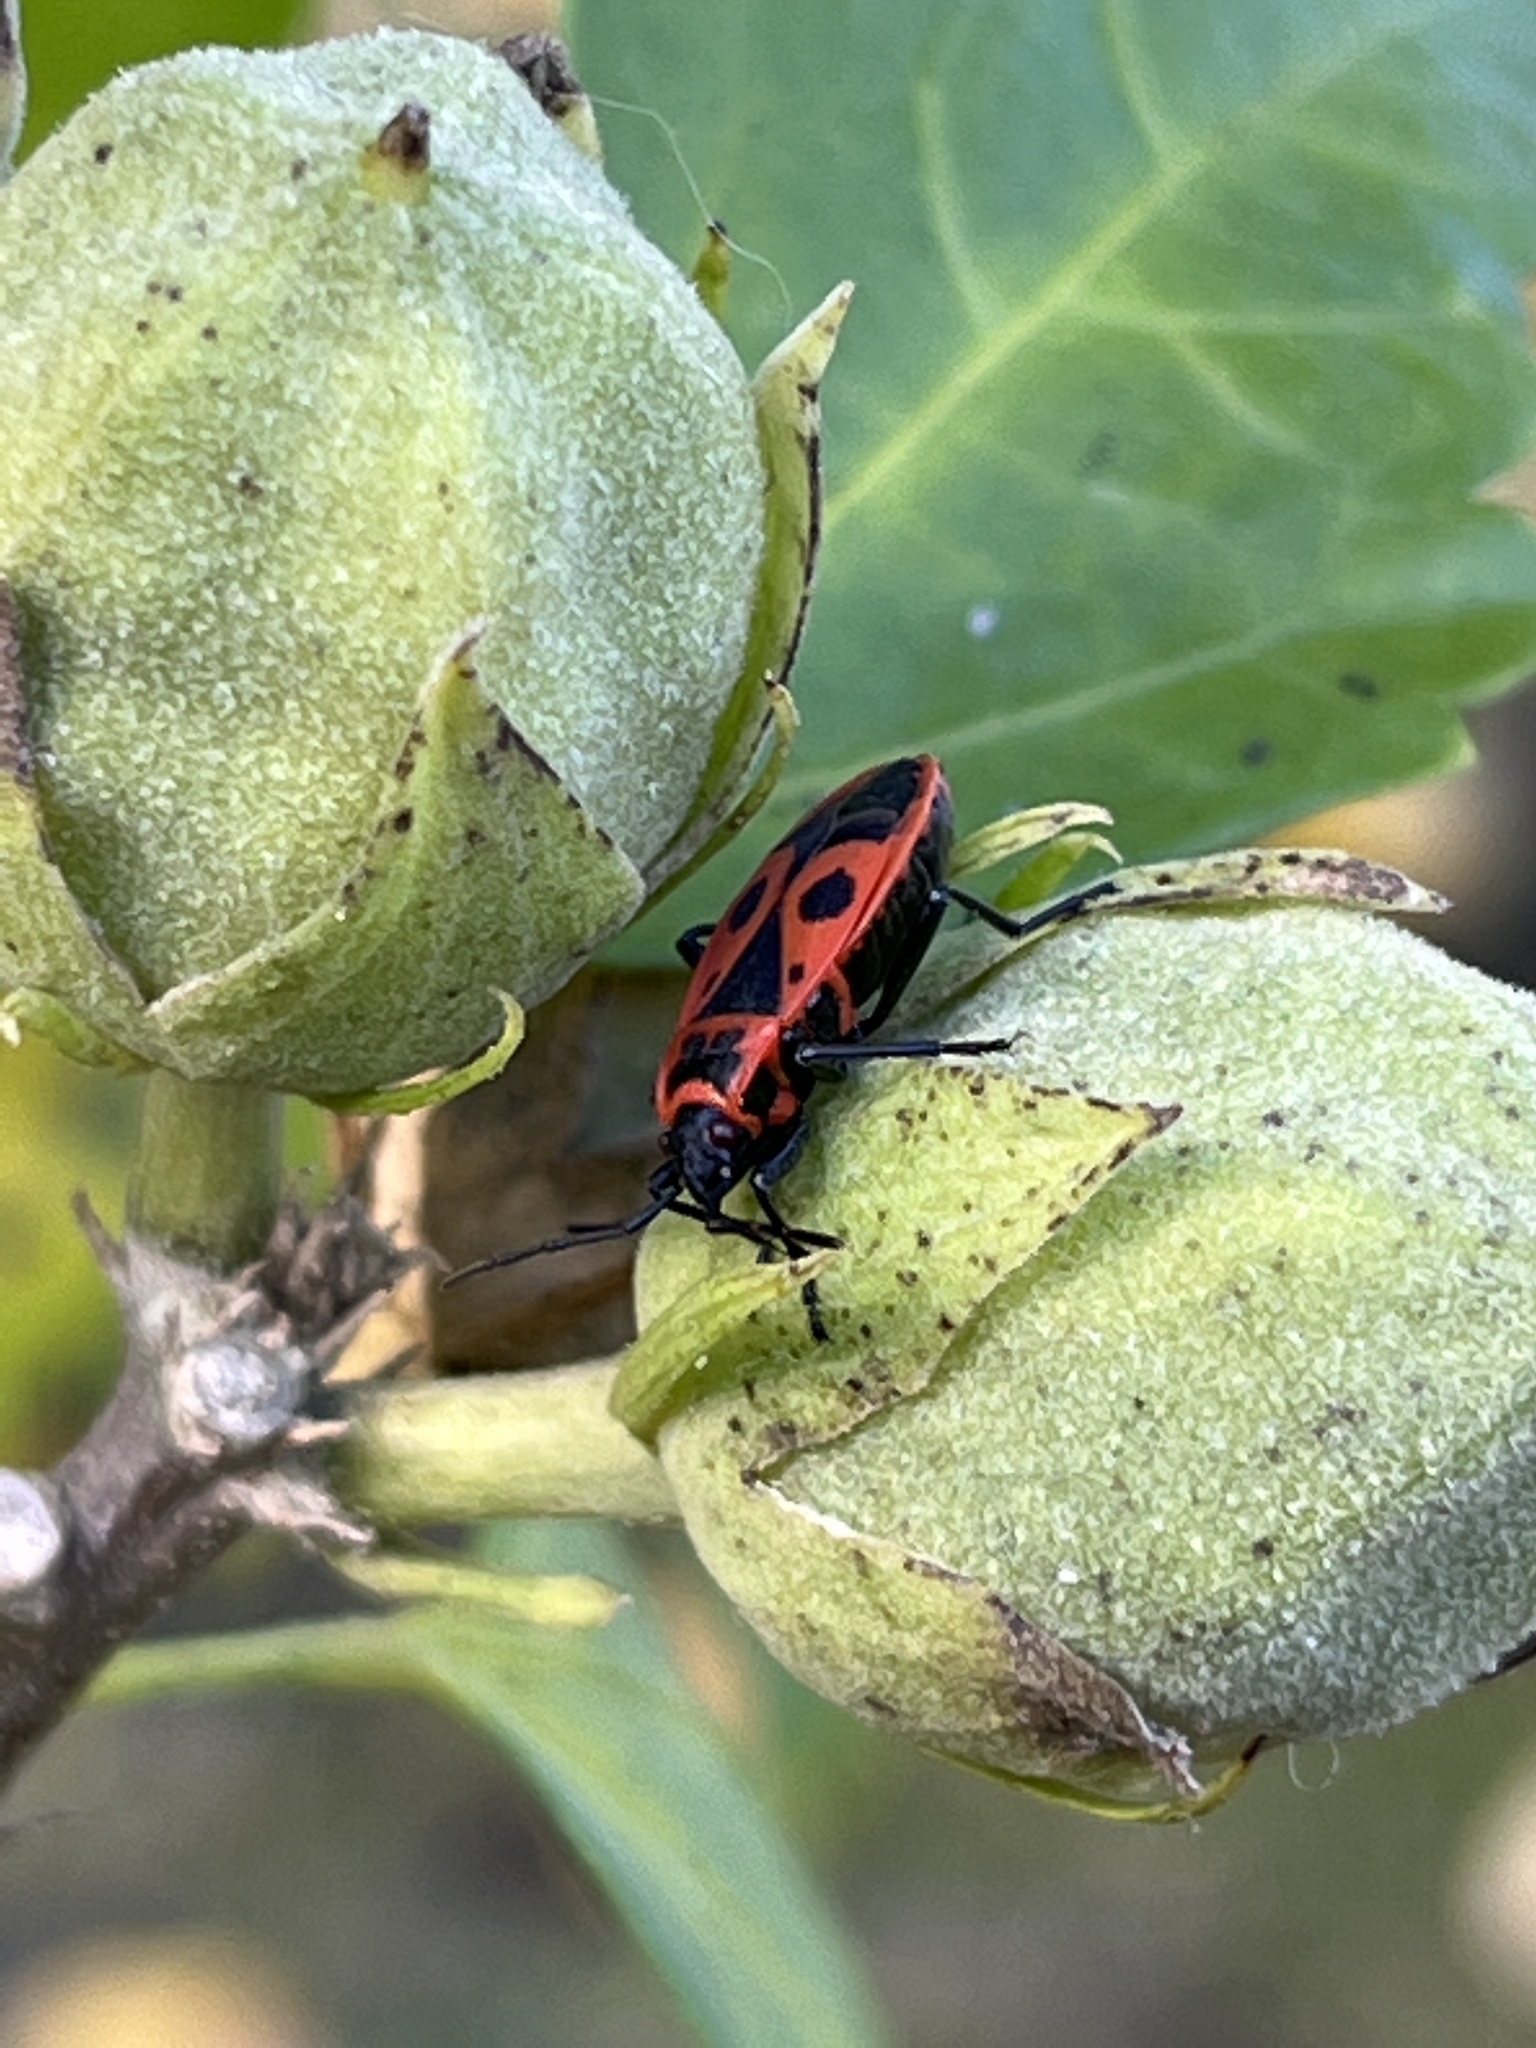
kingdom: Animalia
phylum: Arthropoda
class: Insecta
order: Hemiptera
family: Pyrrhocoridae
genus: Pyrrhocoris
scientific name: Pyrrhocoris apterus
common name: Firebug
